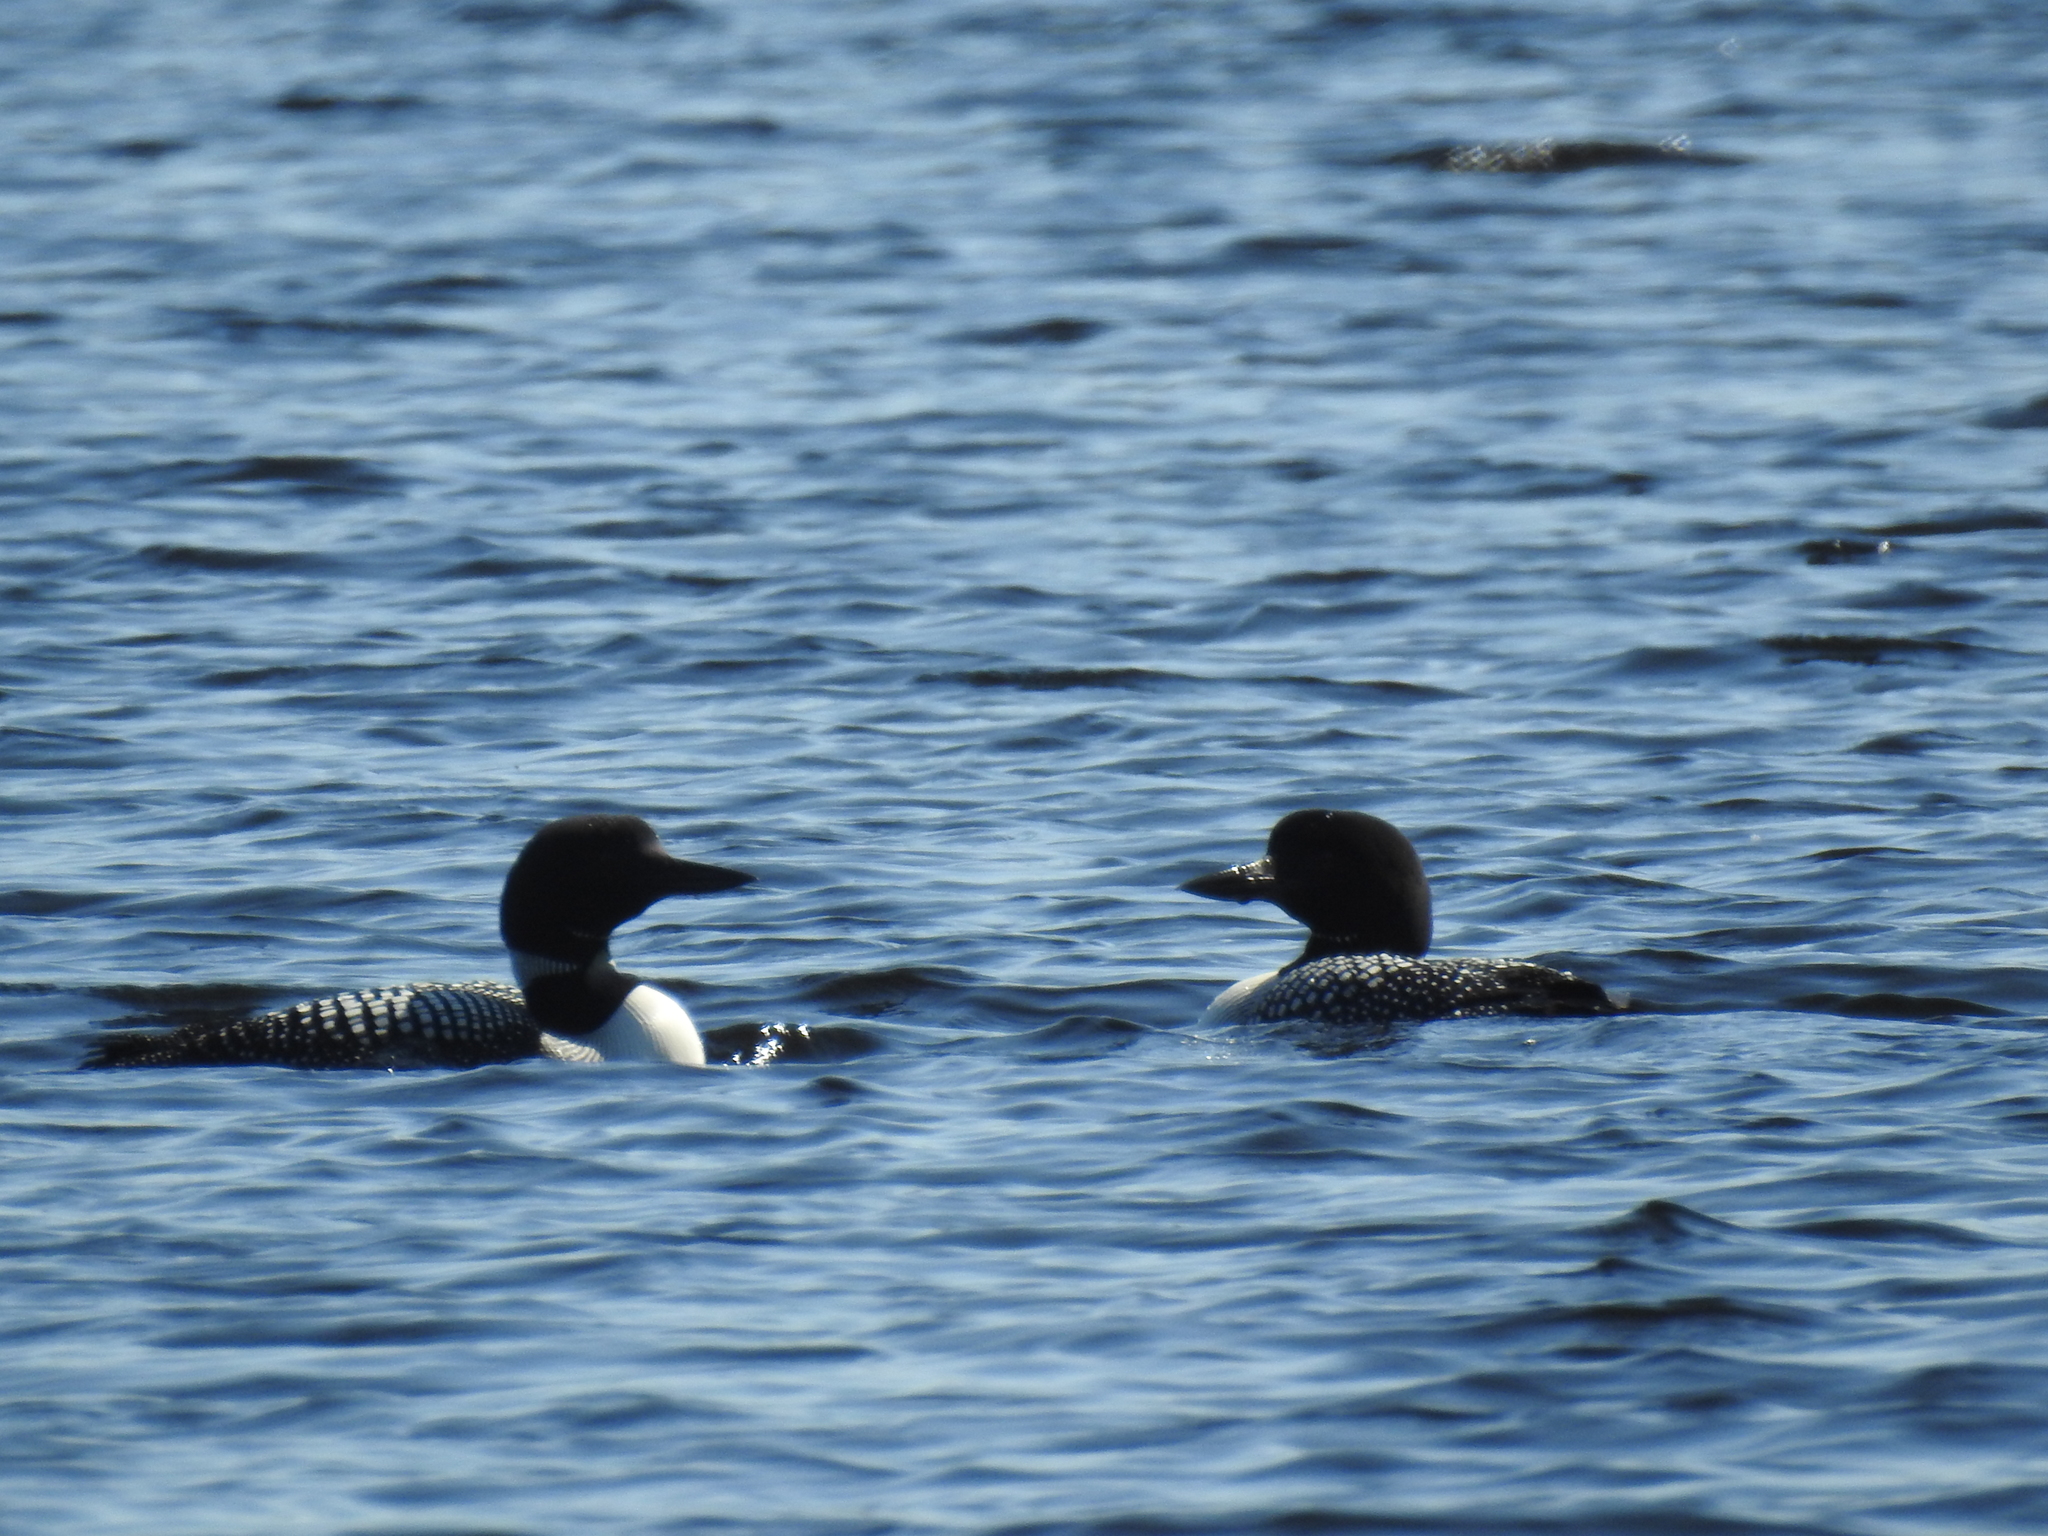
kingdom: Animalia
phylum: Chordata
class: Aves
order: Gaviiformes
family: Gaviidae
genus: Gavia
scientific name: Gavia immer
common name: Common loon
